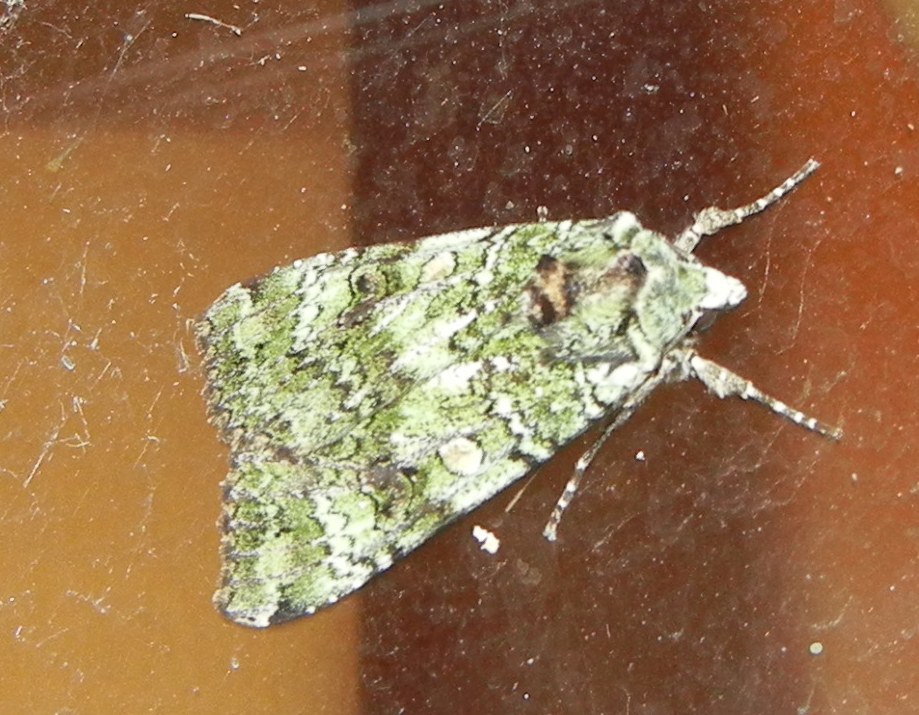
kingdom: Animalia
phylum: Arthropoda
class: Insecta
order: Lepidoptera
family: Noctuidae
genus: Anaplectoides
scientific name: Anaplectoides prasina
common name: Green arches
